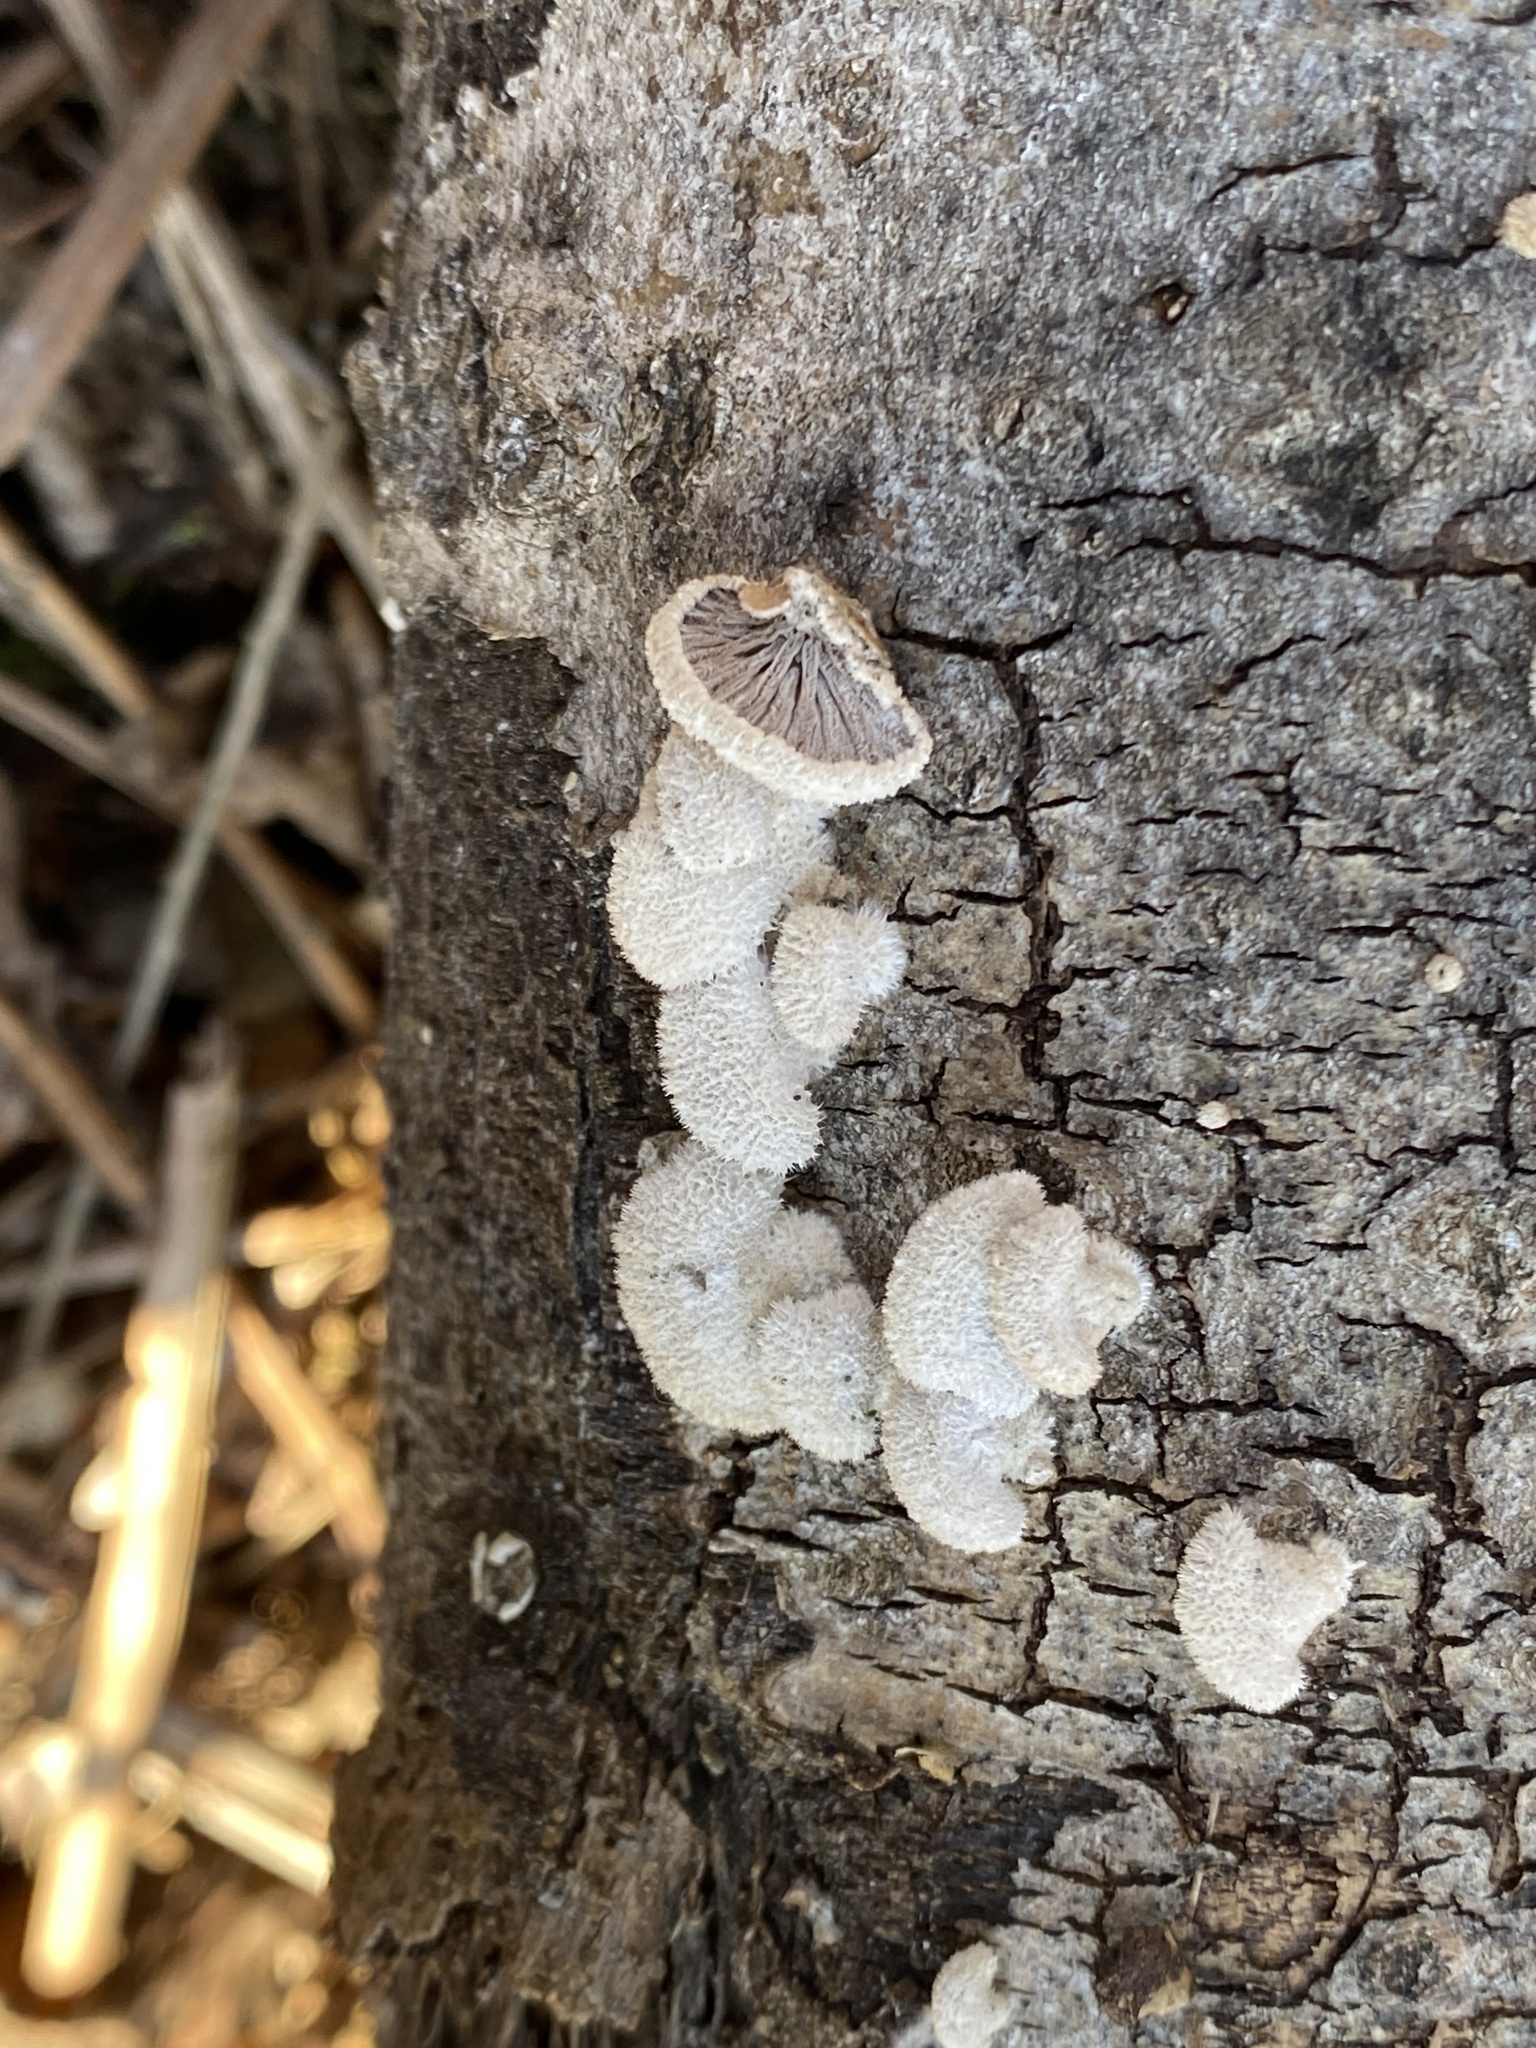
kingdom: Fungi
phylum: Basidiomycota
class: Agaricomycetes
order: Agaricales
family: Schizophyllaceae
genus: Schizophyllum
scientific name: Schizophyllum commune
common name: Common porecrust
